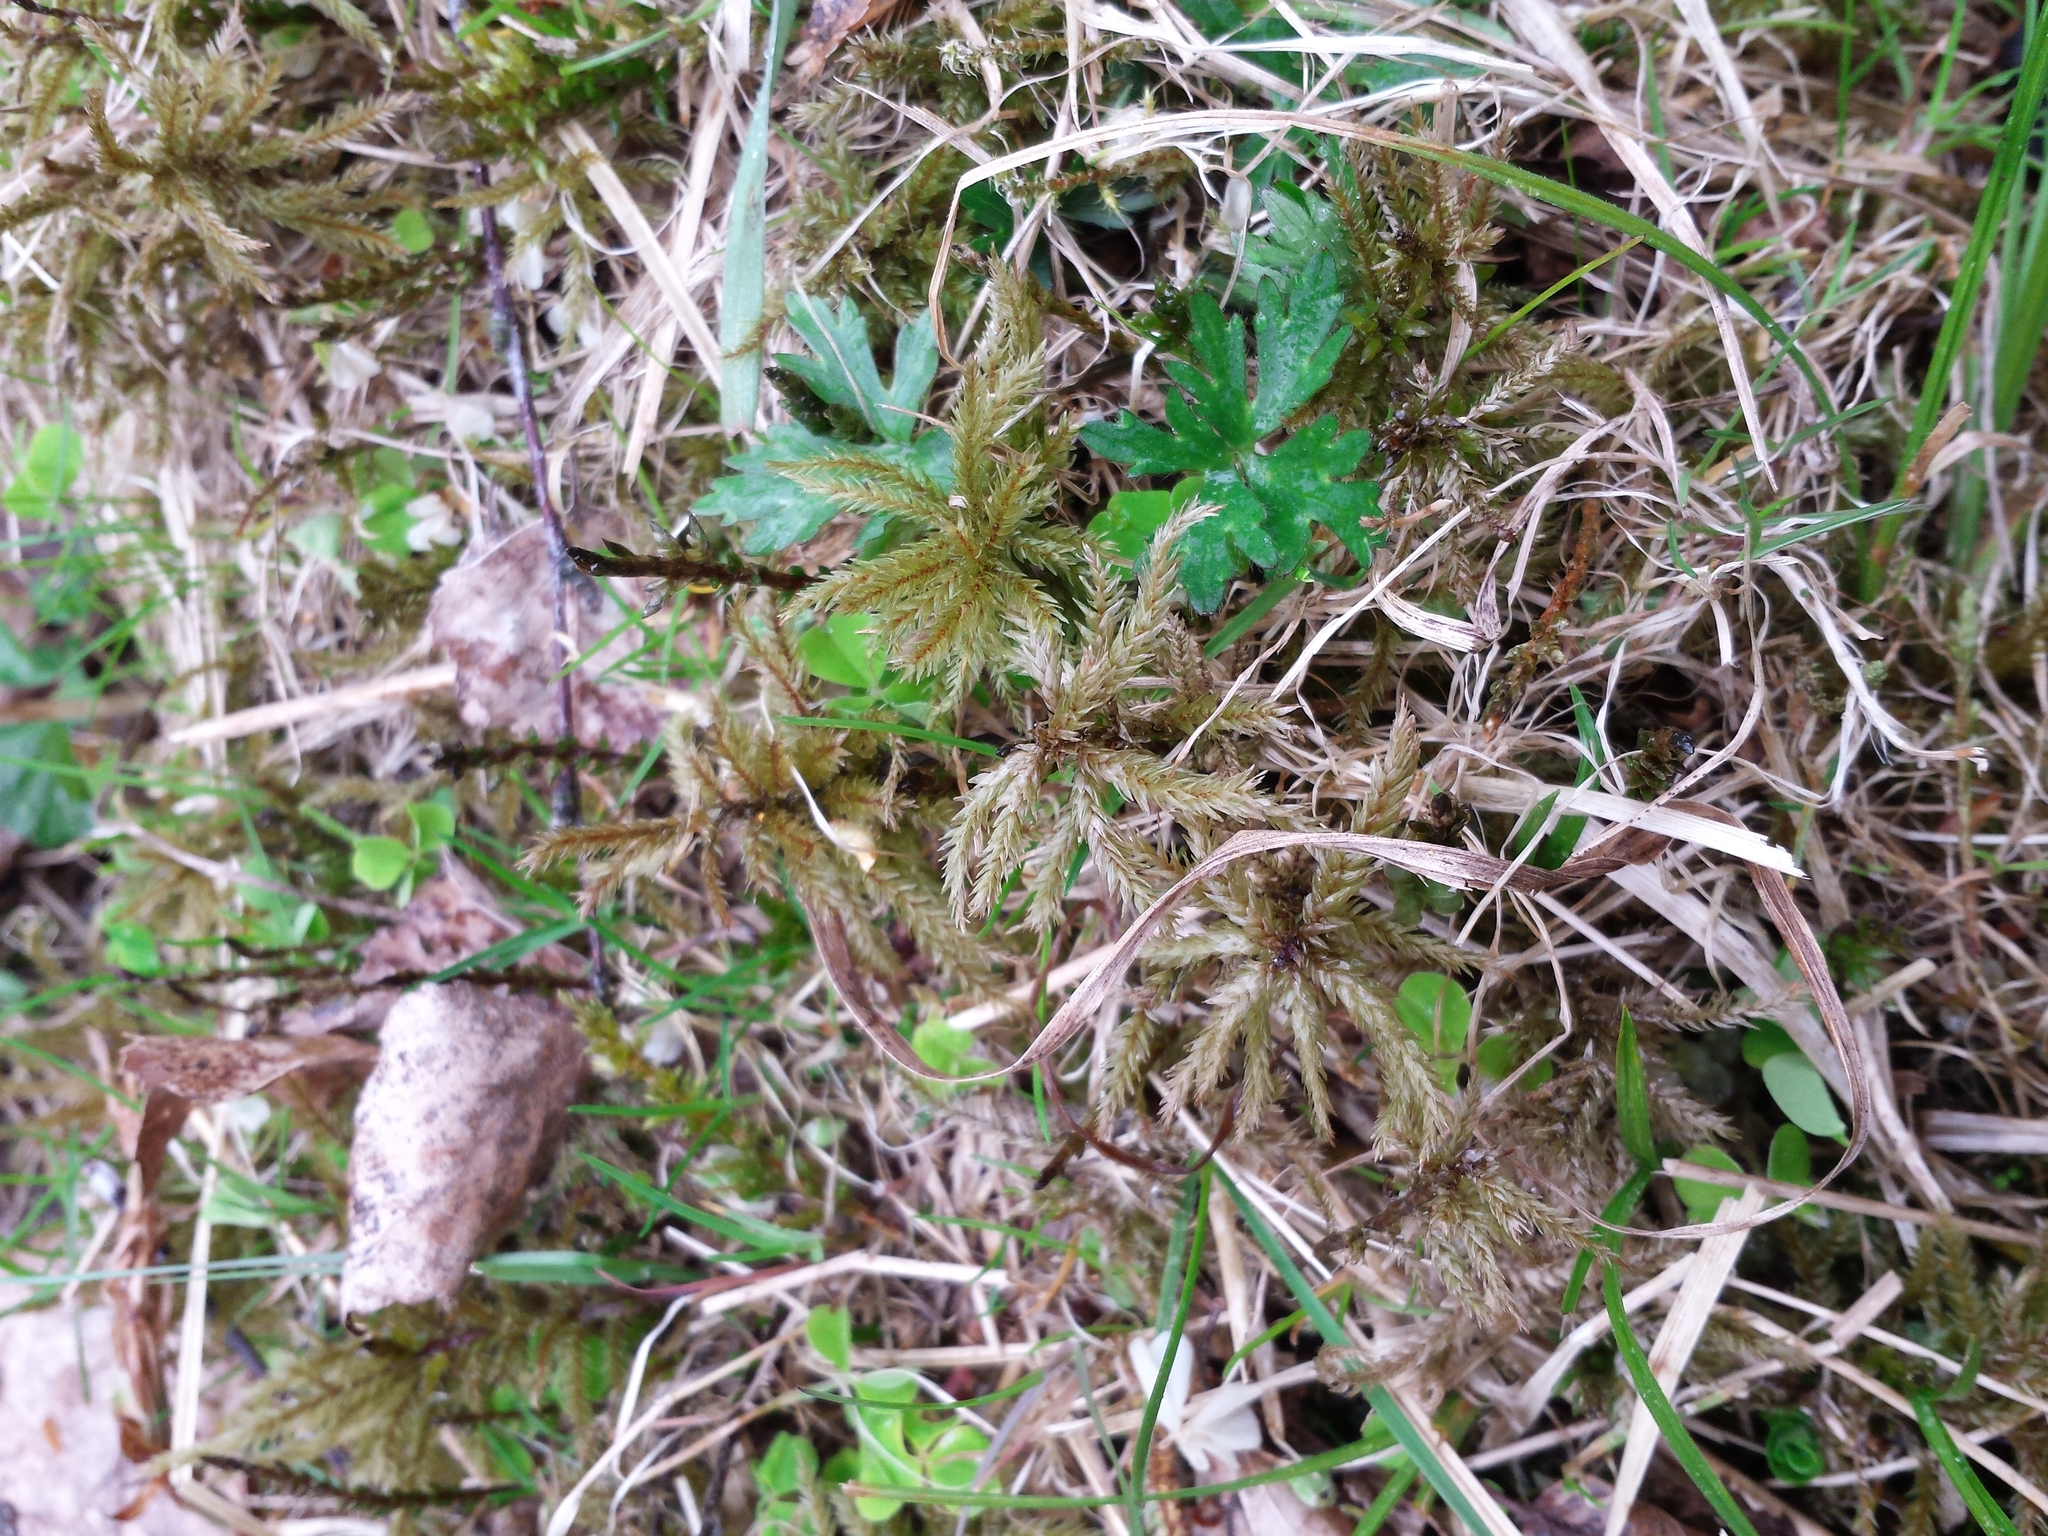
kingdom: Plantae
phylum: Bryophyta
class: Bryopsida
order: Hypnales
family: Climaciaceae
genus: Climacium
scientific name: Climacium dendroides
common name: Northern tree moss
